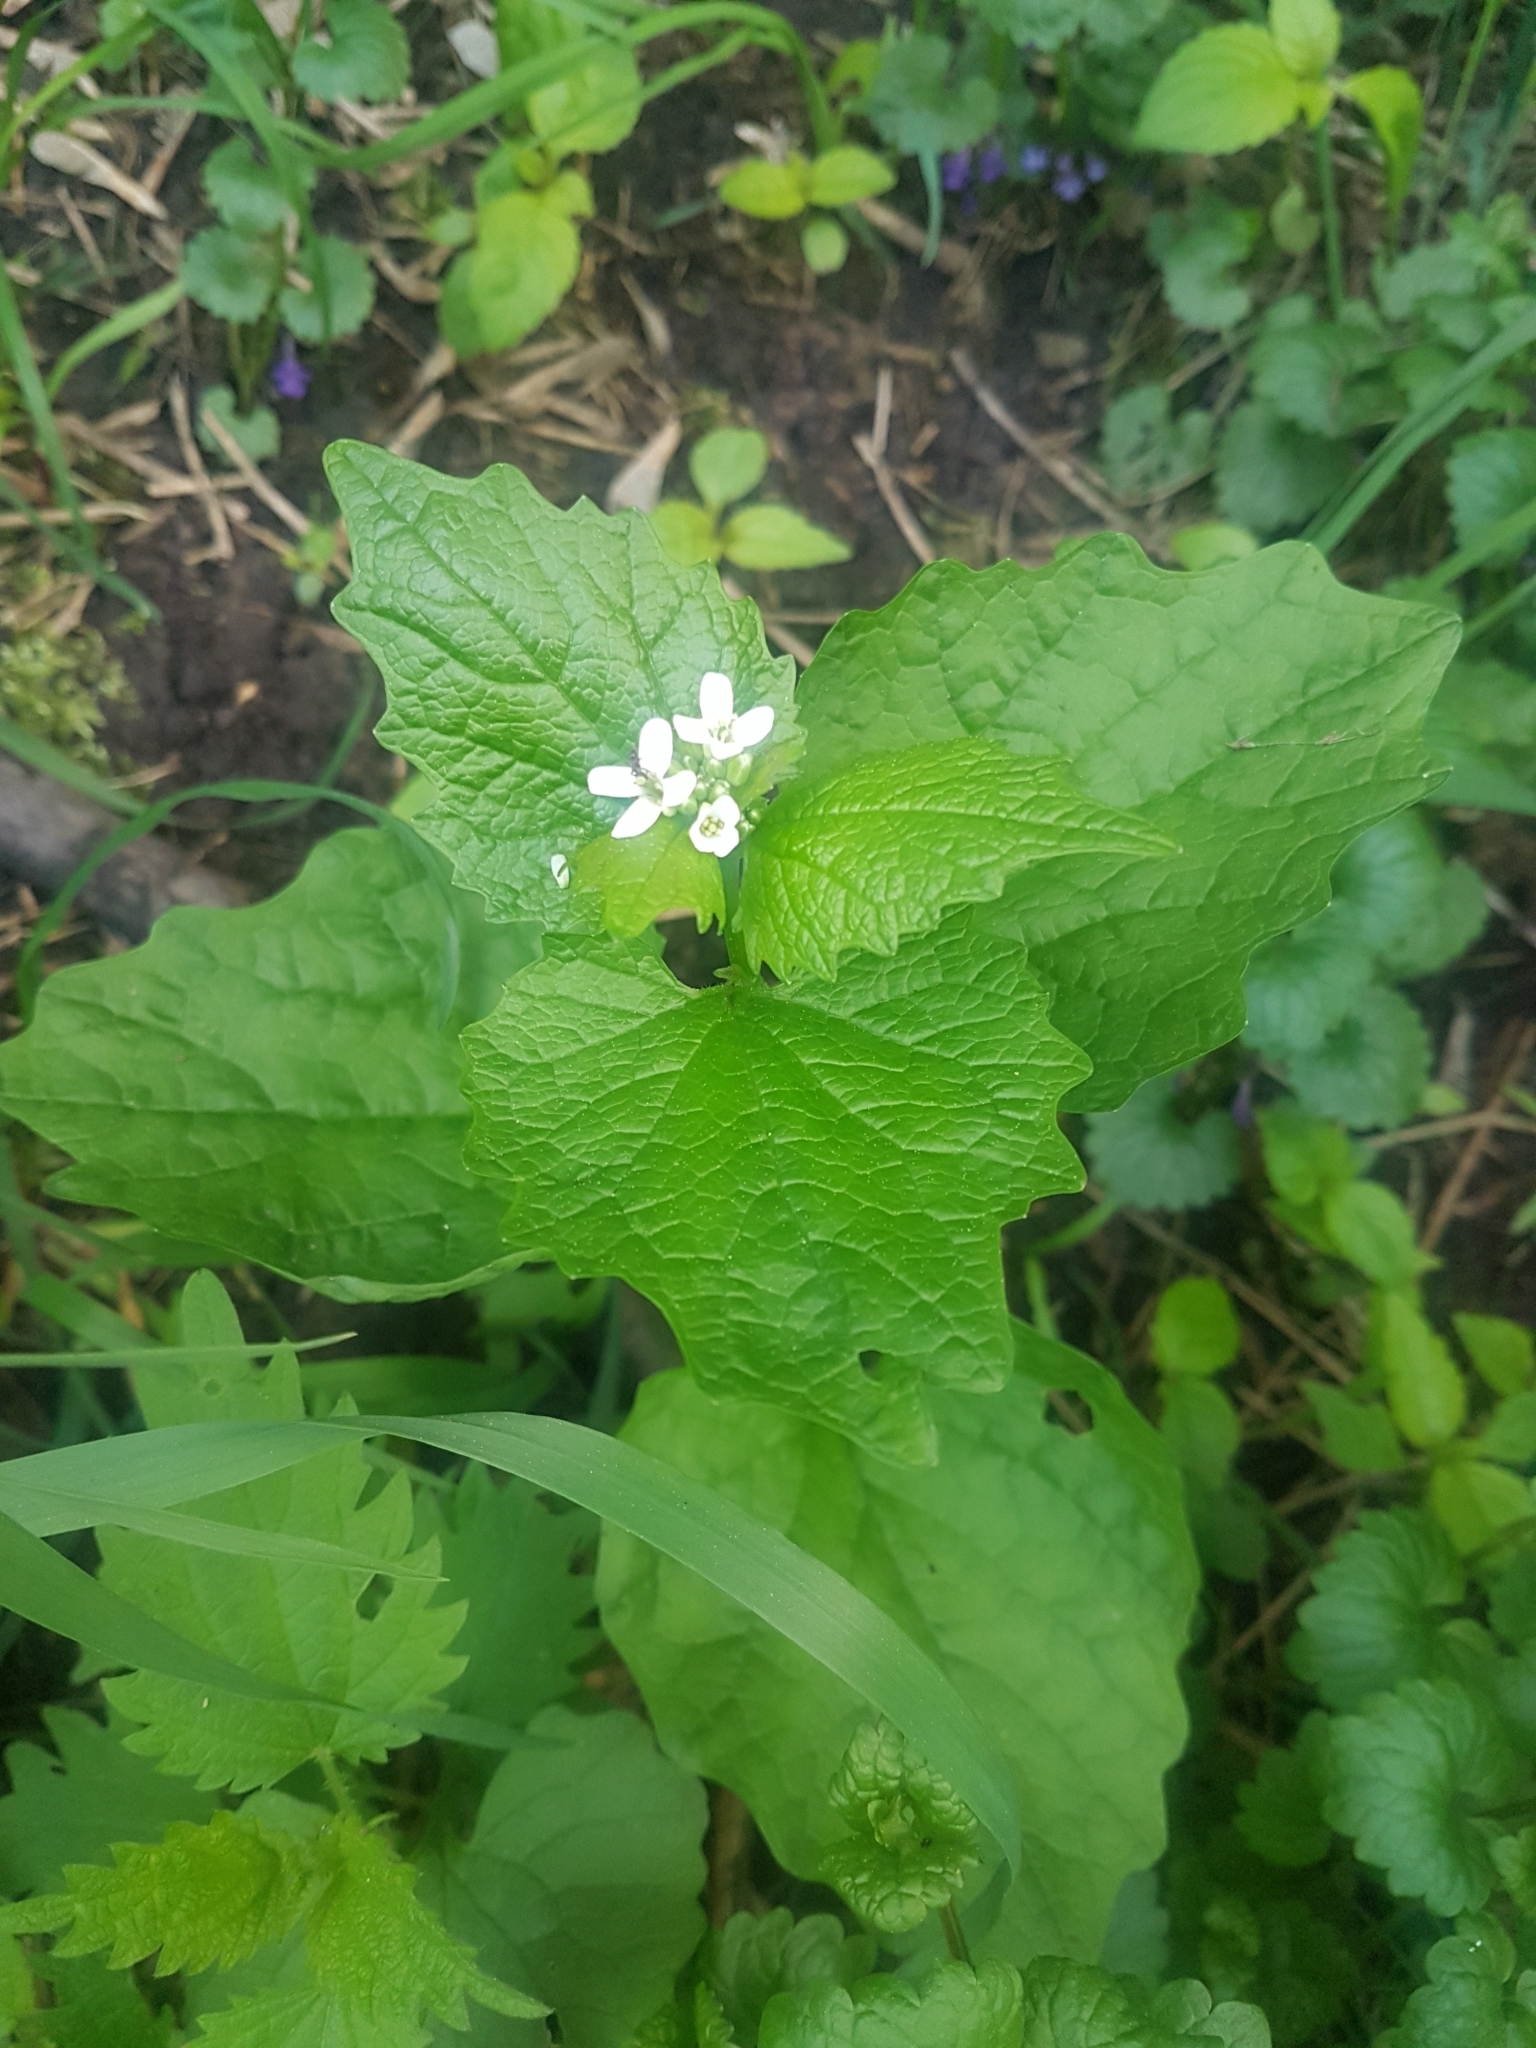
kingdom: Plantae
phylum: Tracheophyta
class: Magnoliopsida
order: Brassicales
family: Brassicaceae
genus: Alliaria
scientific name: Alliaria petiolata
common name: Garlic mustard
